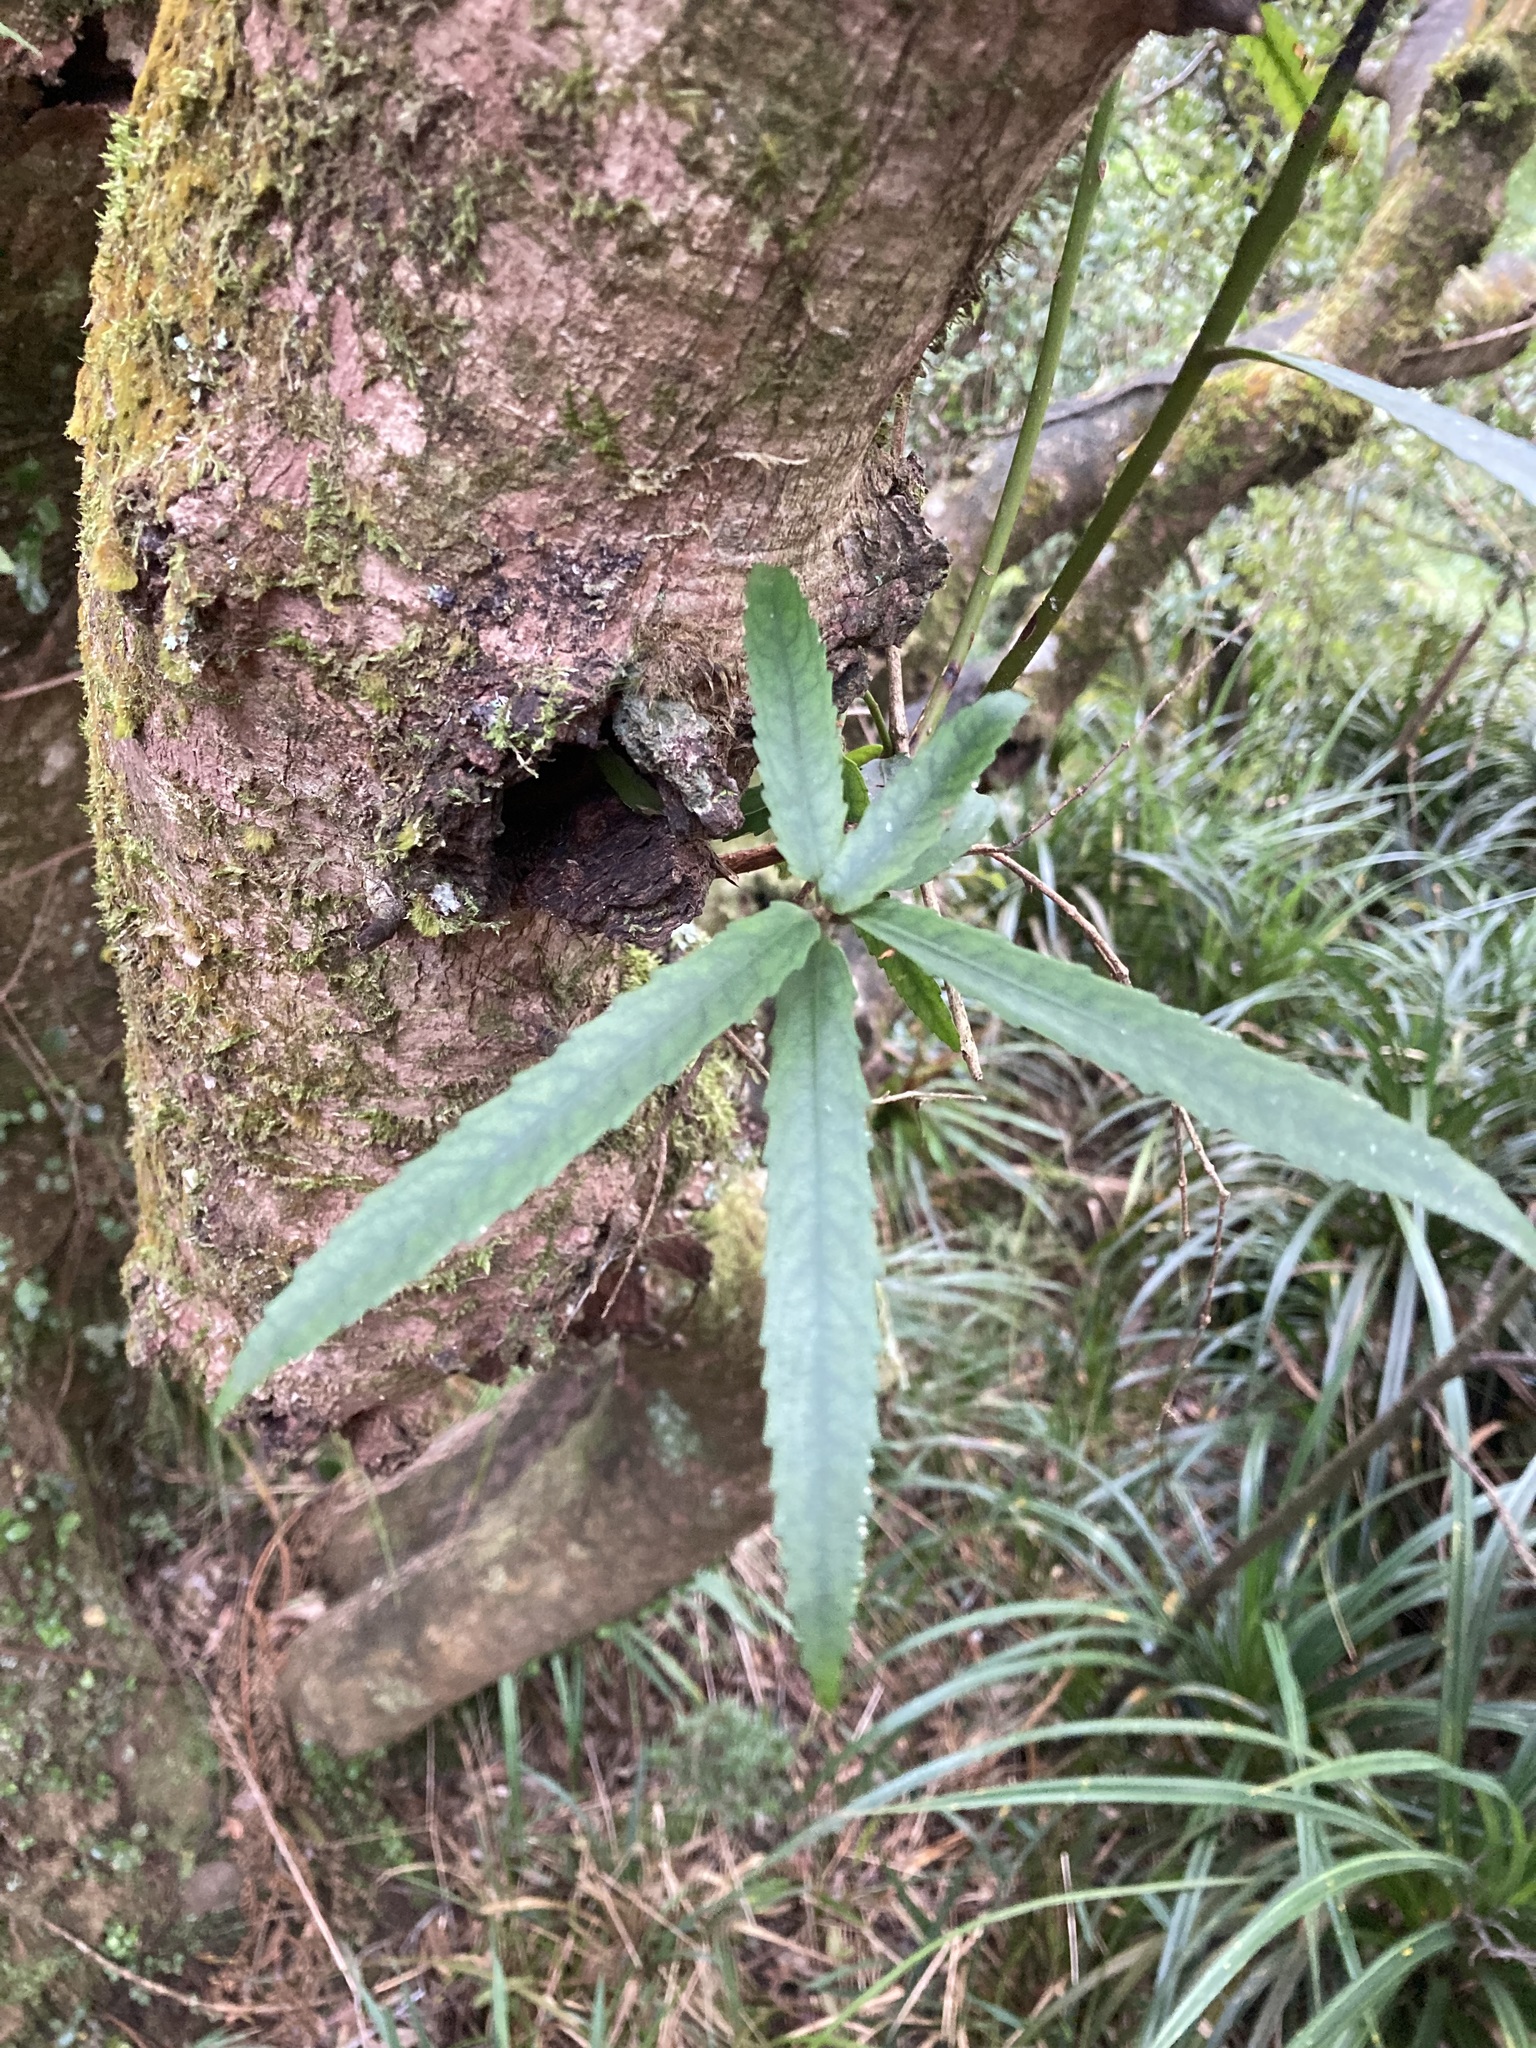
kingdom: Plantae
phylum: Tracheophyta
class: Magnoliopsida
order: Crossosomatales
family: Ixerbaceae
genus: Ixerba
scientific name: Ixerba brexioides
